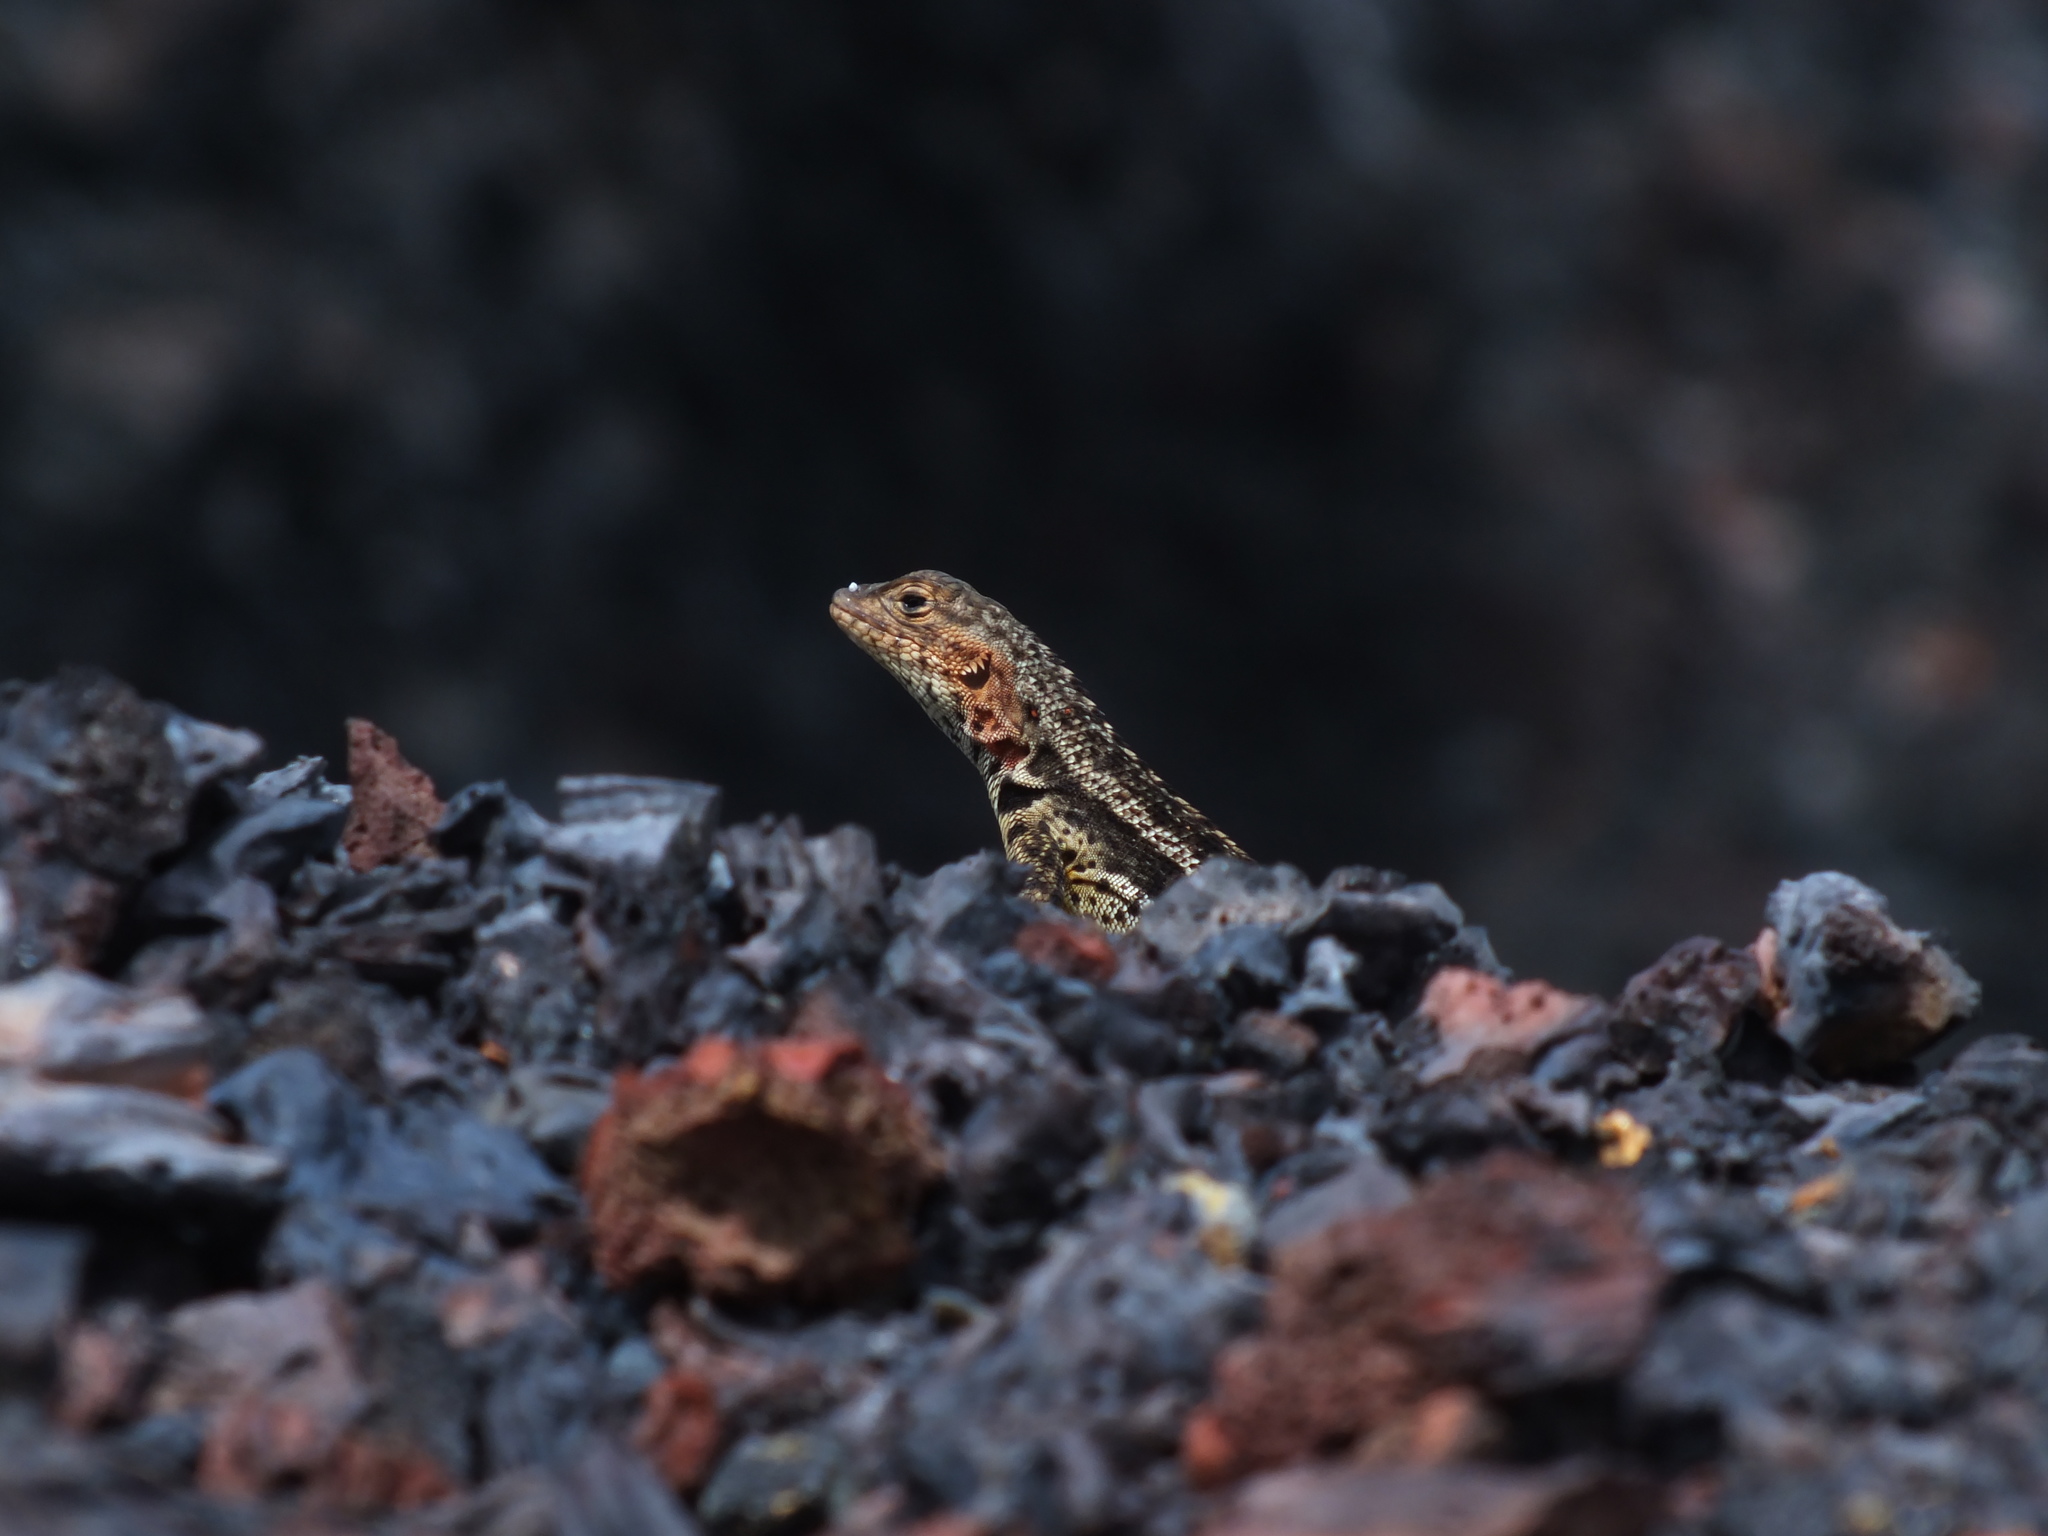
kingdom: Animalia
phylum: Chordata
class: Squamata
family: Tropiduridae
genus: Microlophus
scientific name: Microlophus albemarlensis
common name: Galapagos lava lizard
